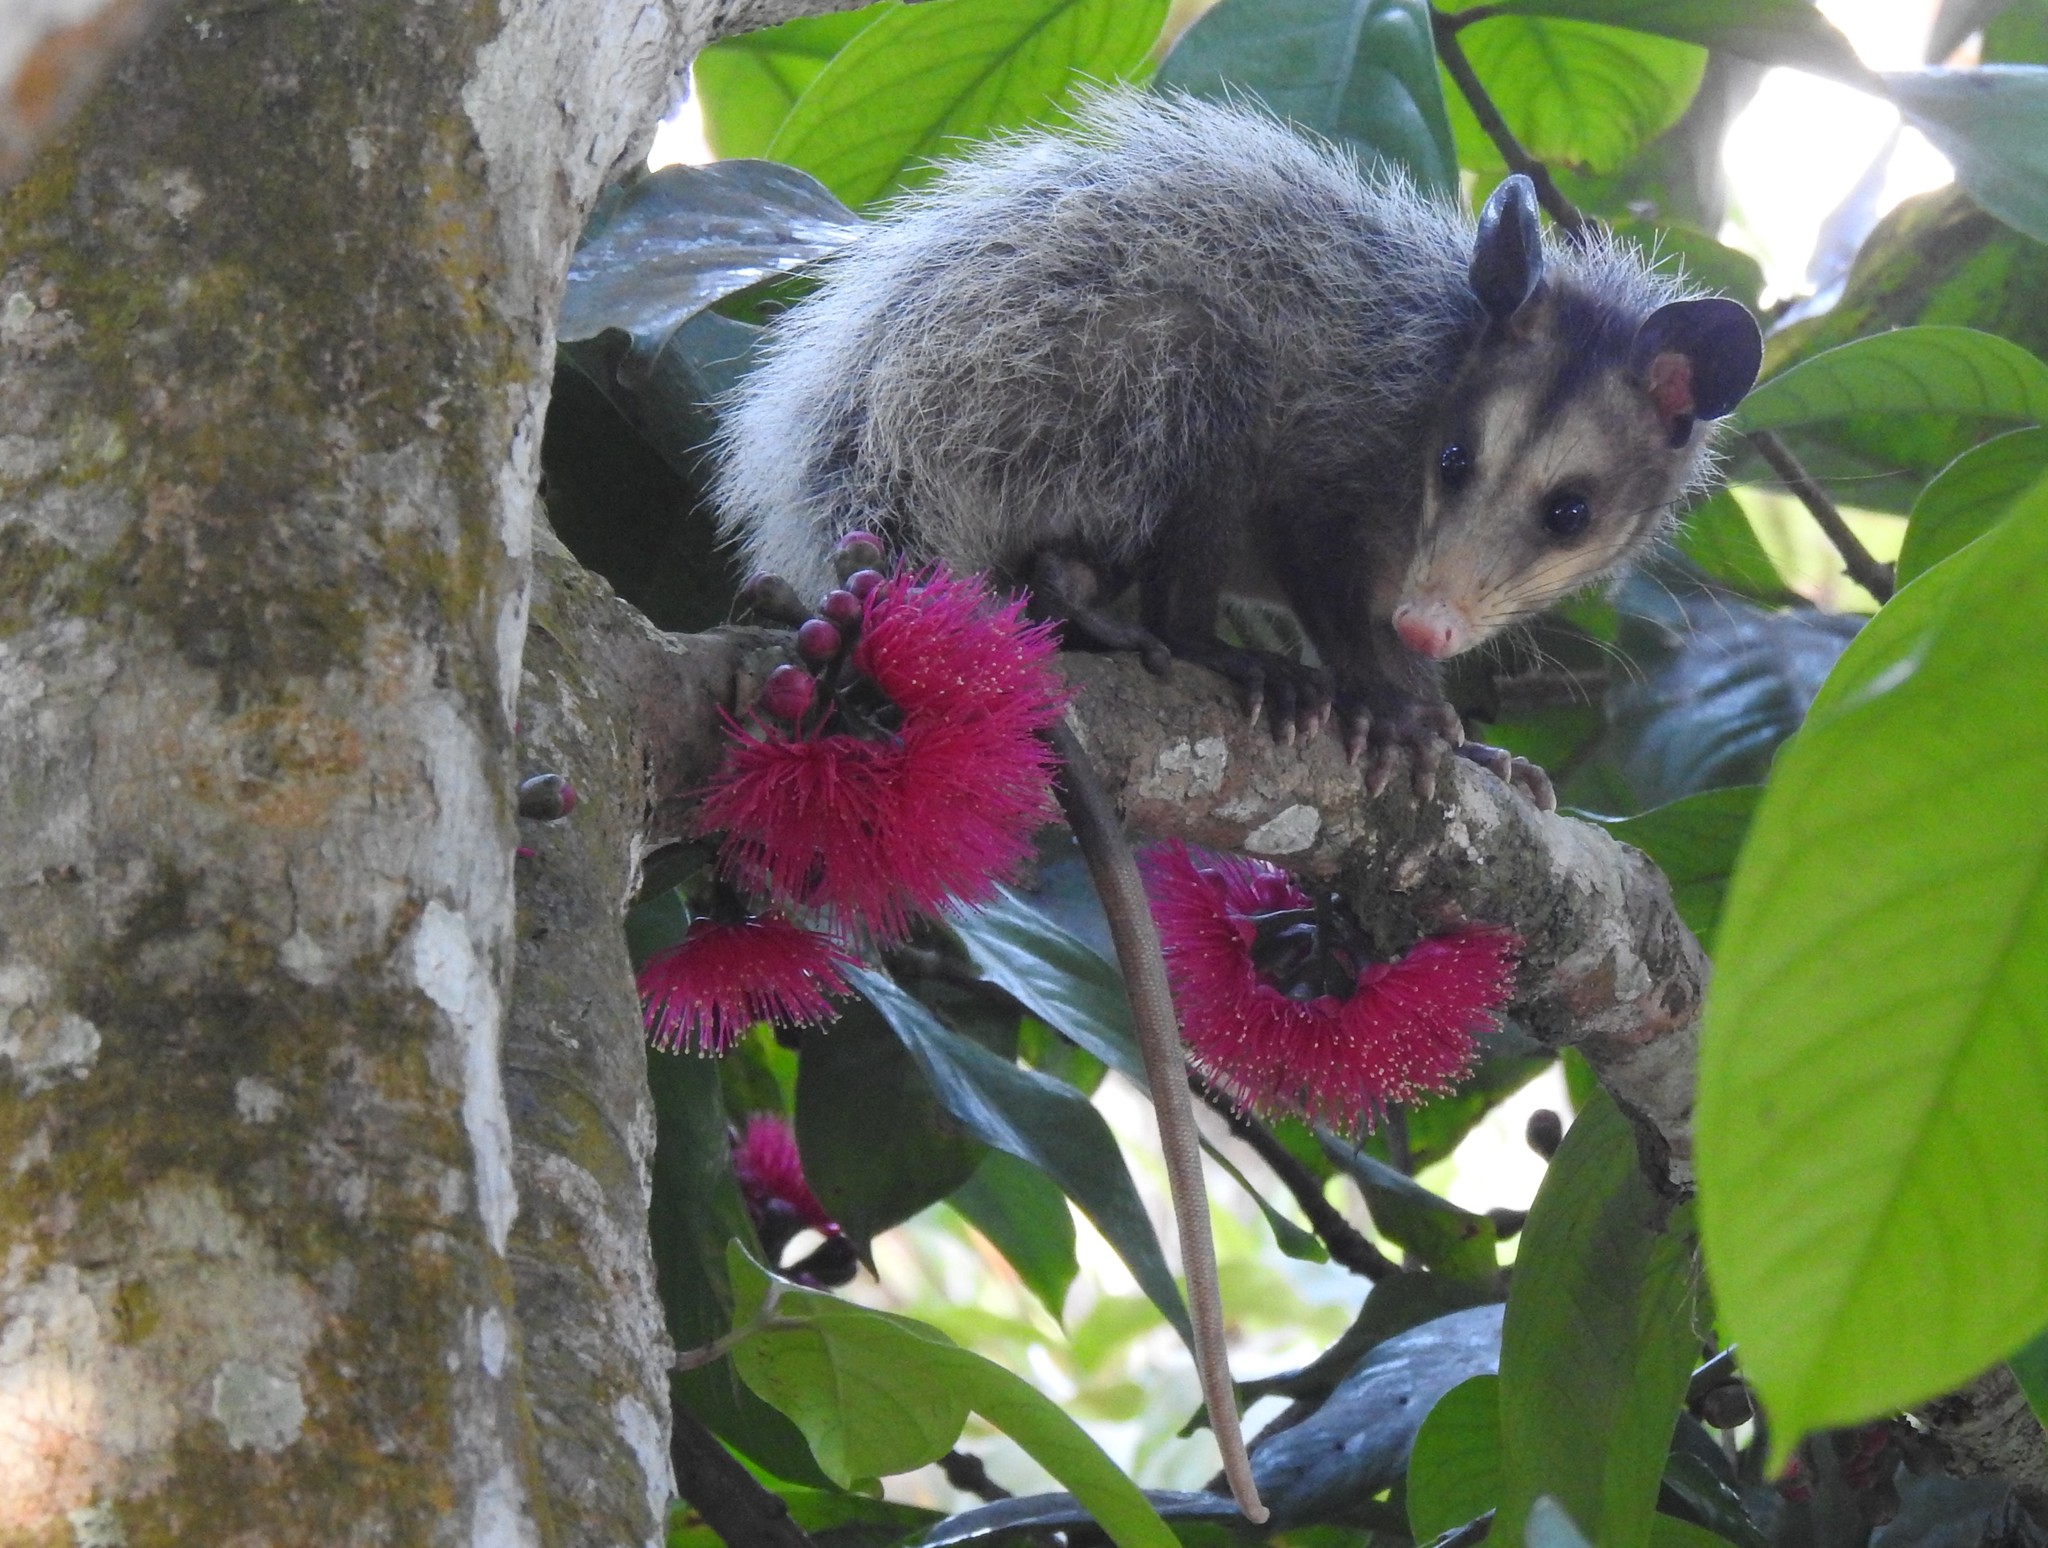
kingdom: Animalia
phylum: Chordata
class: Mammalia
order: Didelphimorphia
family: Didelphidae
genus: Didelphis
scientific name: Didelphis marsupialis
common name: Common opossum
